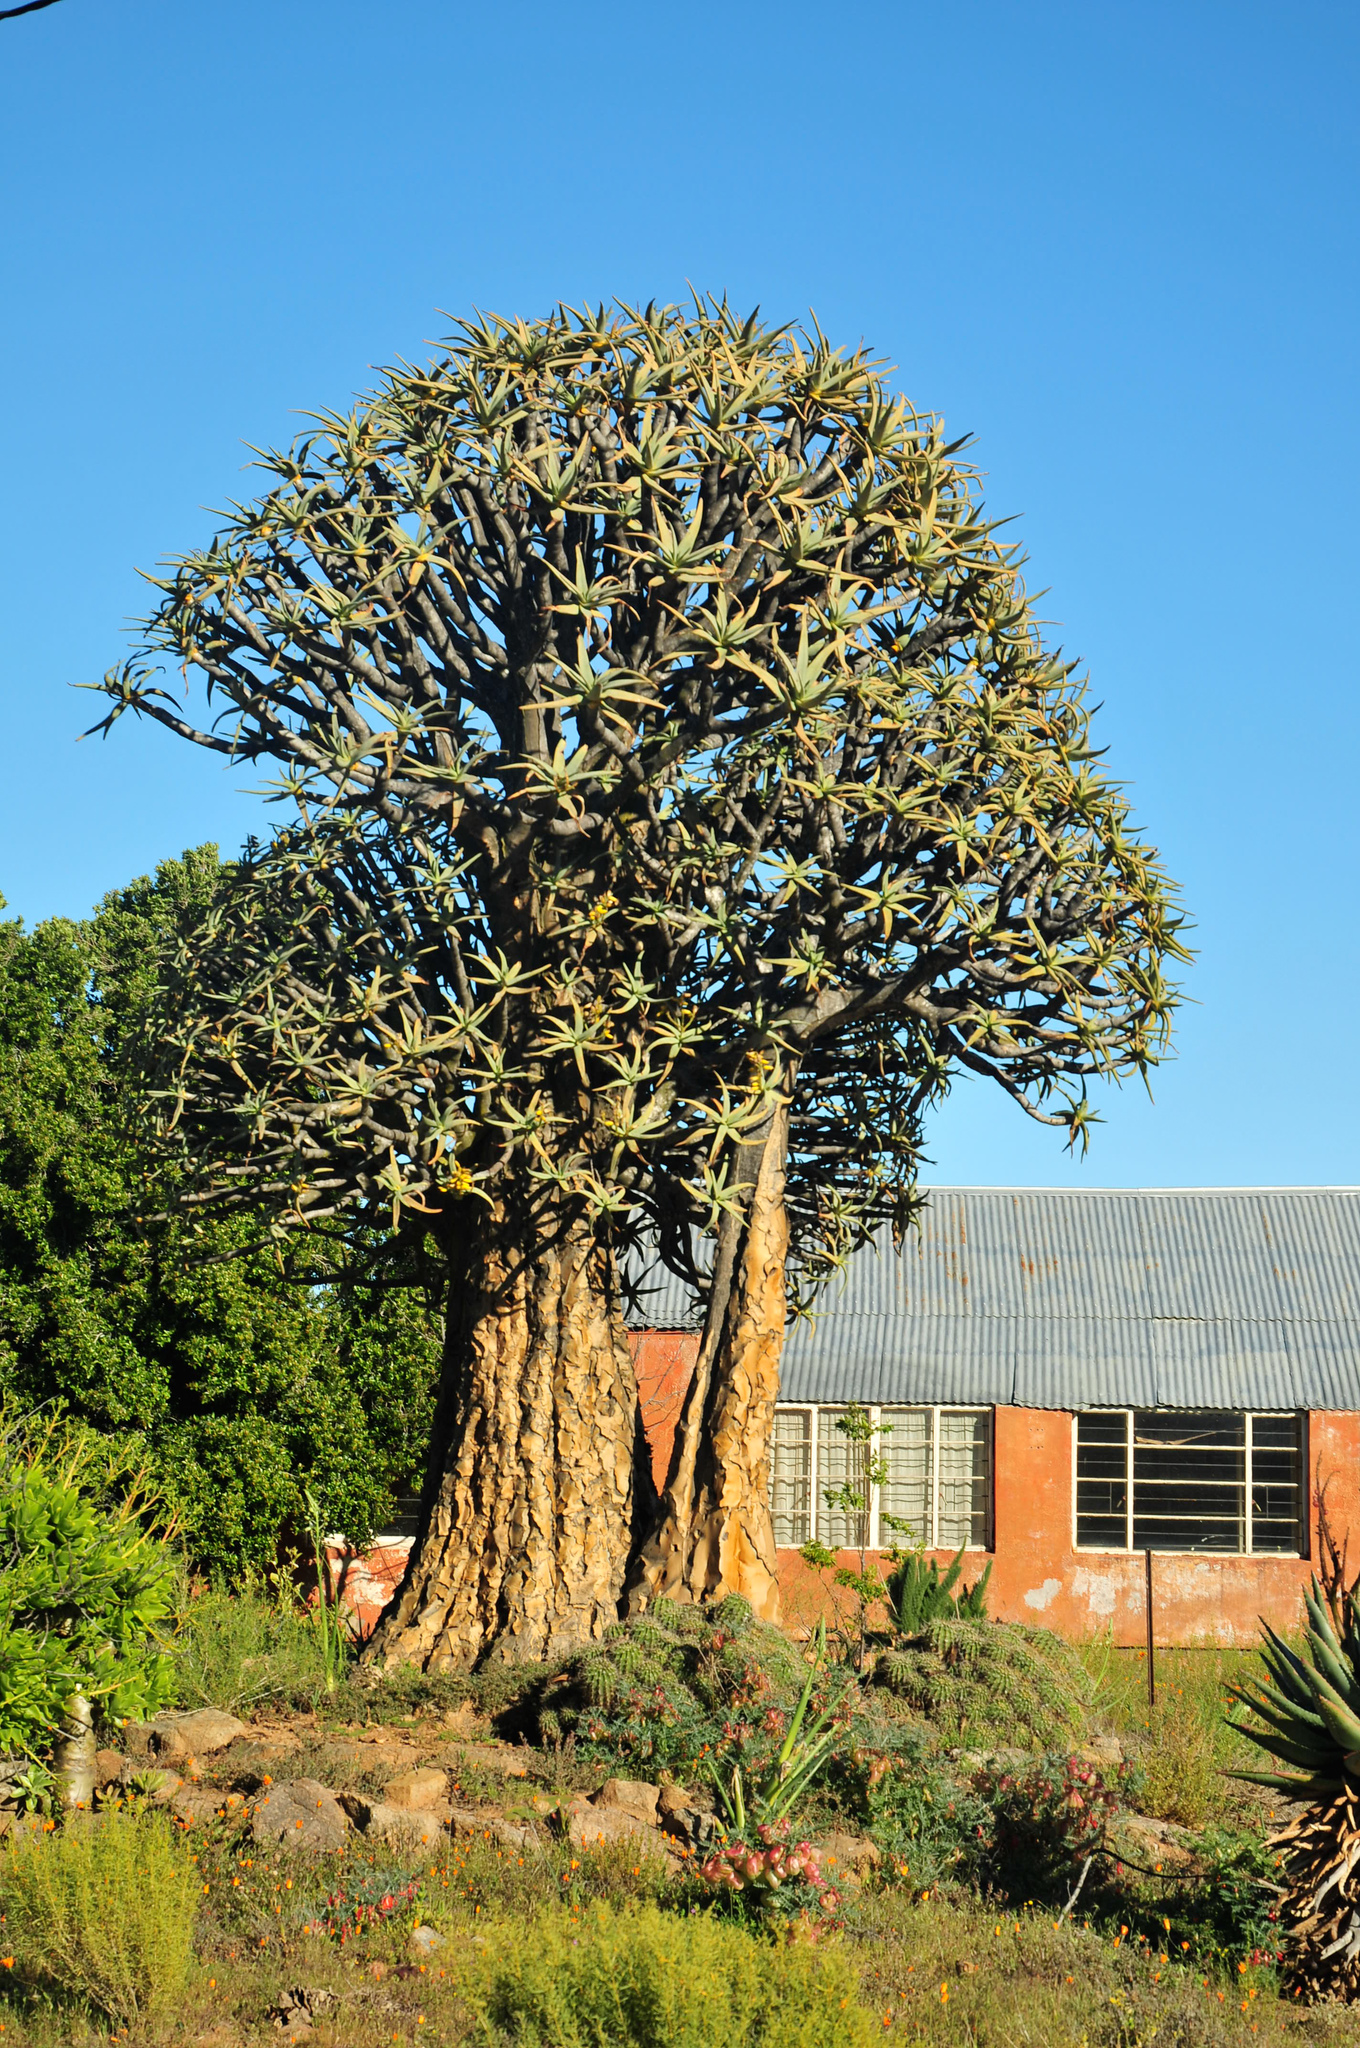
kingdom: Plantae
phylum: Tracheophyta
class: Liliopsida
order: Asparagales
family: Asphodelaceae
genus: Aloidendron
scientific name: Aloidendron dichotomum
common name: Quiver tree
